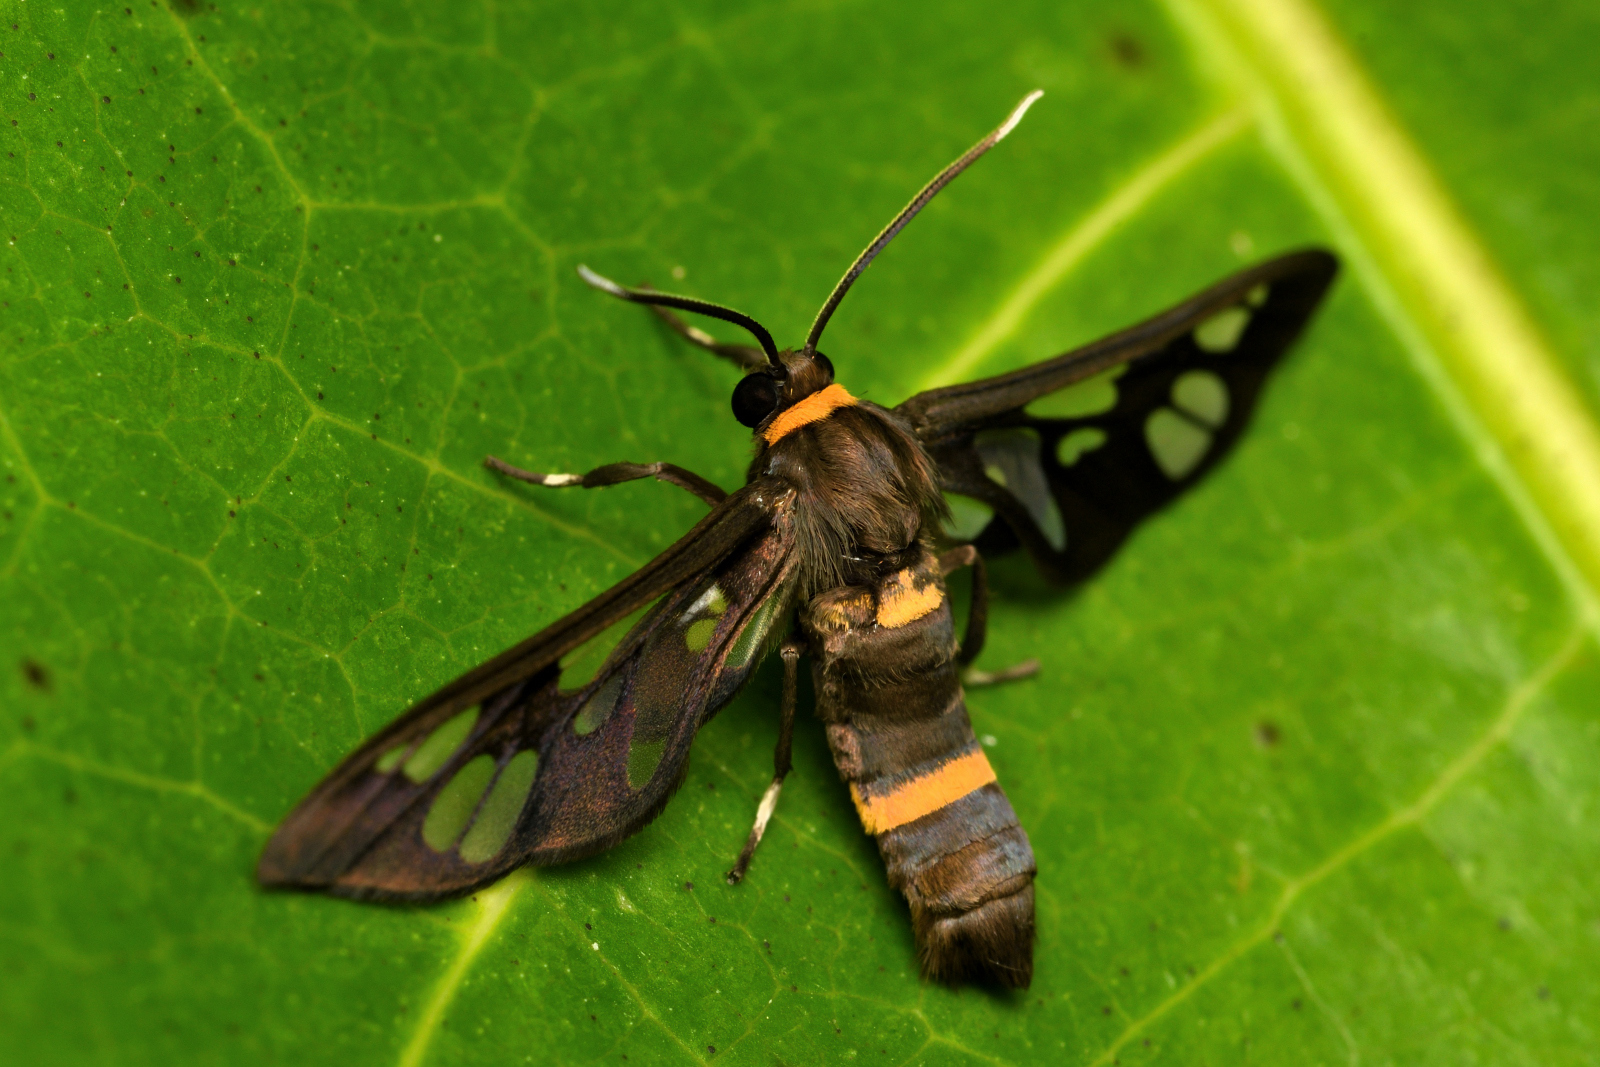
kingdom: Animalia
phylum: Arthropoda
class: Insecta
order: Lepidoptera
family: Erebidae
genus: Syntomoides
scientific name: Syntomoides imaon
